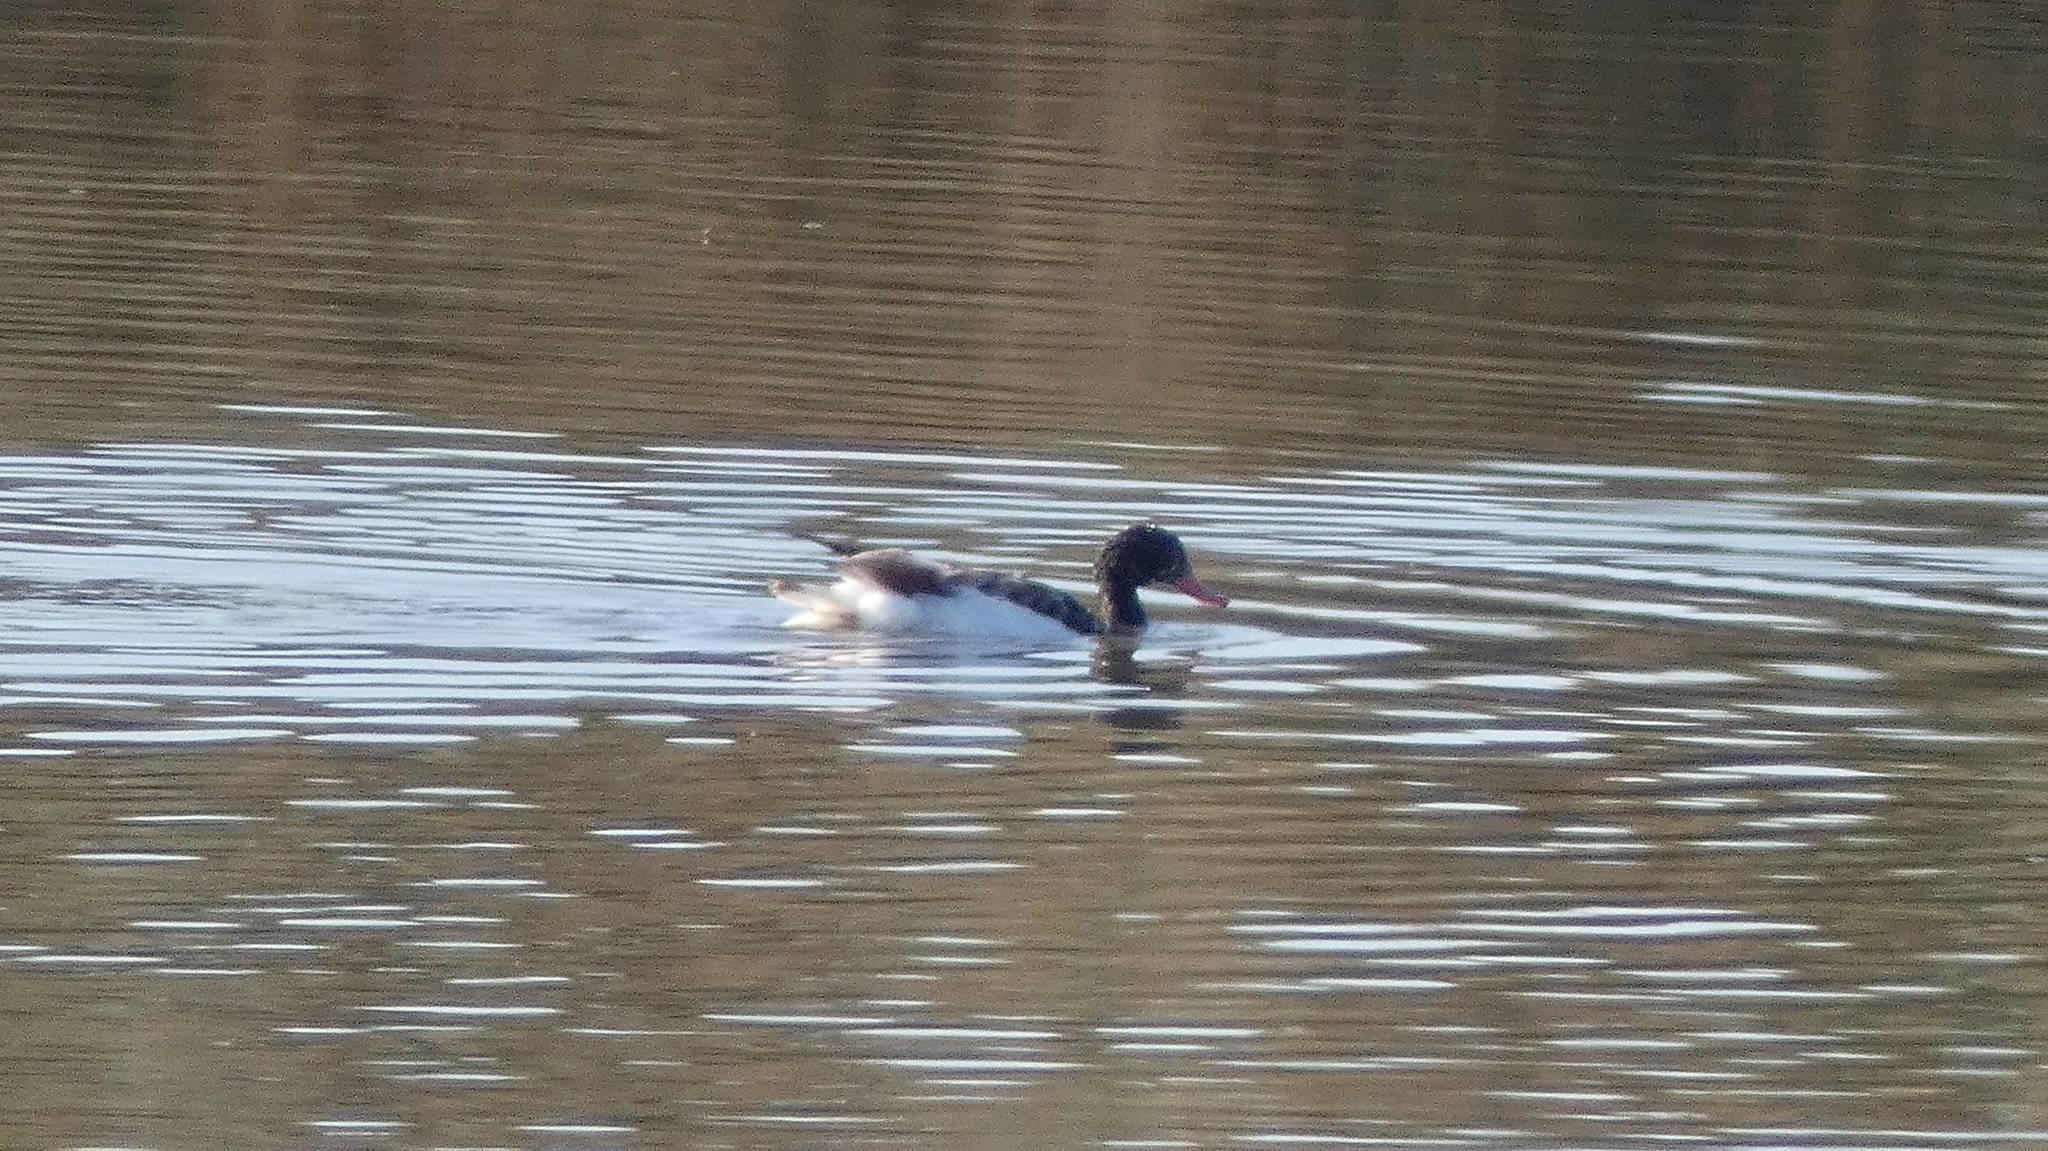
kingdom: Animalia
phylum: Chordata
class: Aves
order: Anseriformes
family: Anatidae
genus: Tadorna
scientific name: Tadorna tadorna
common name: Common shelduck
